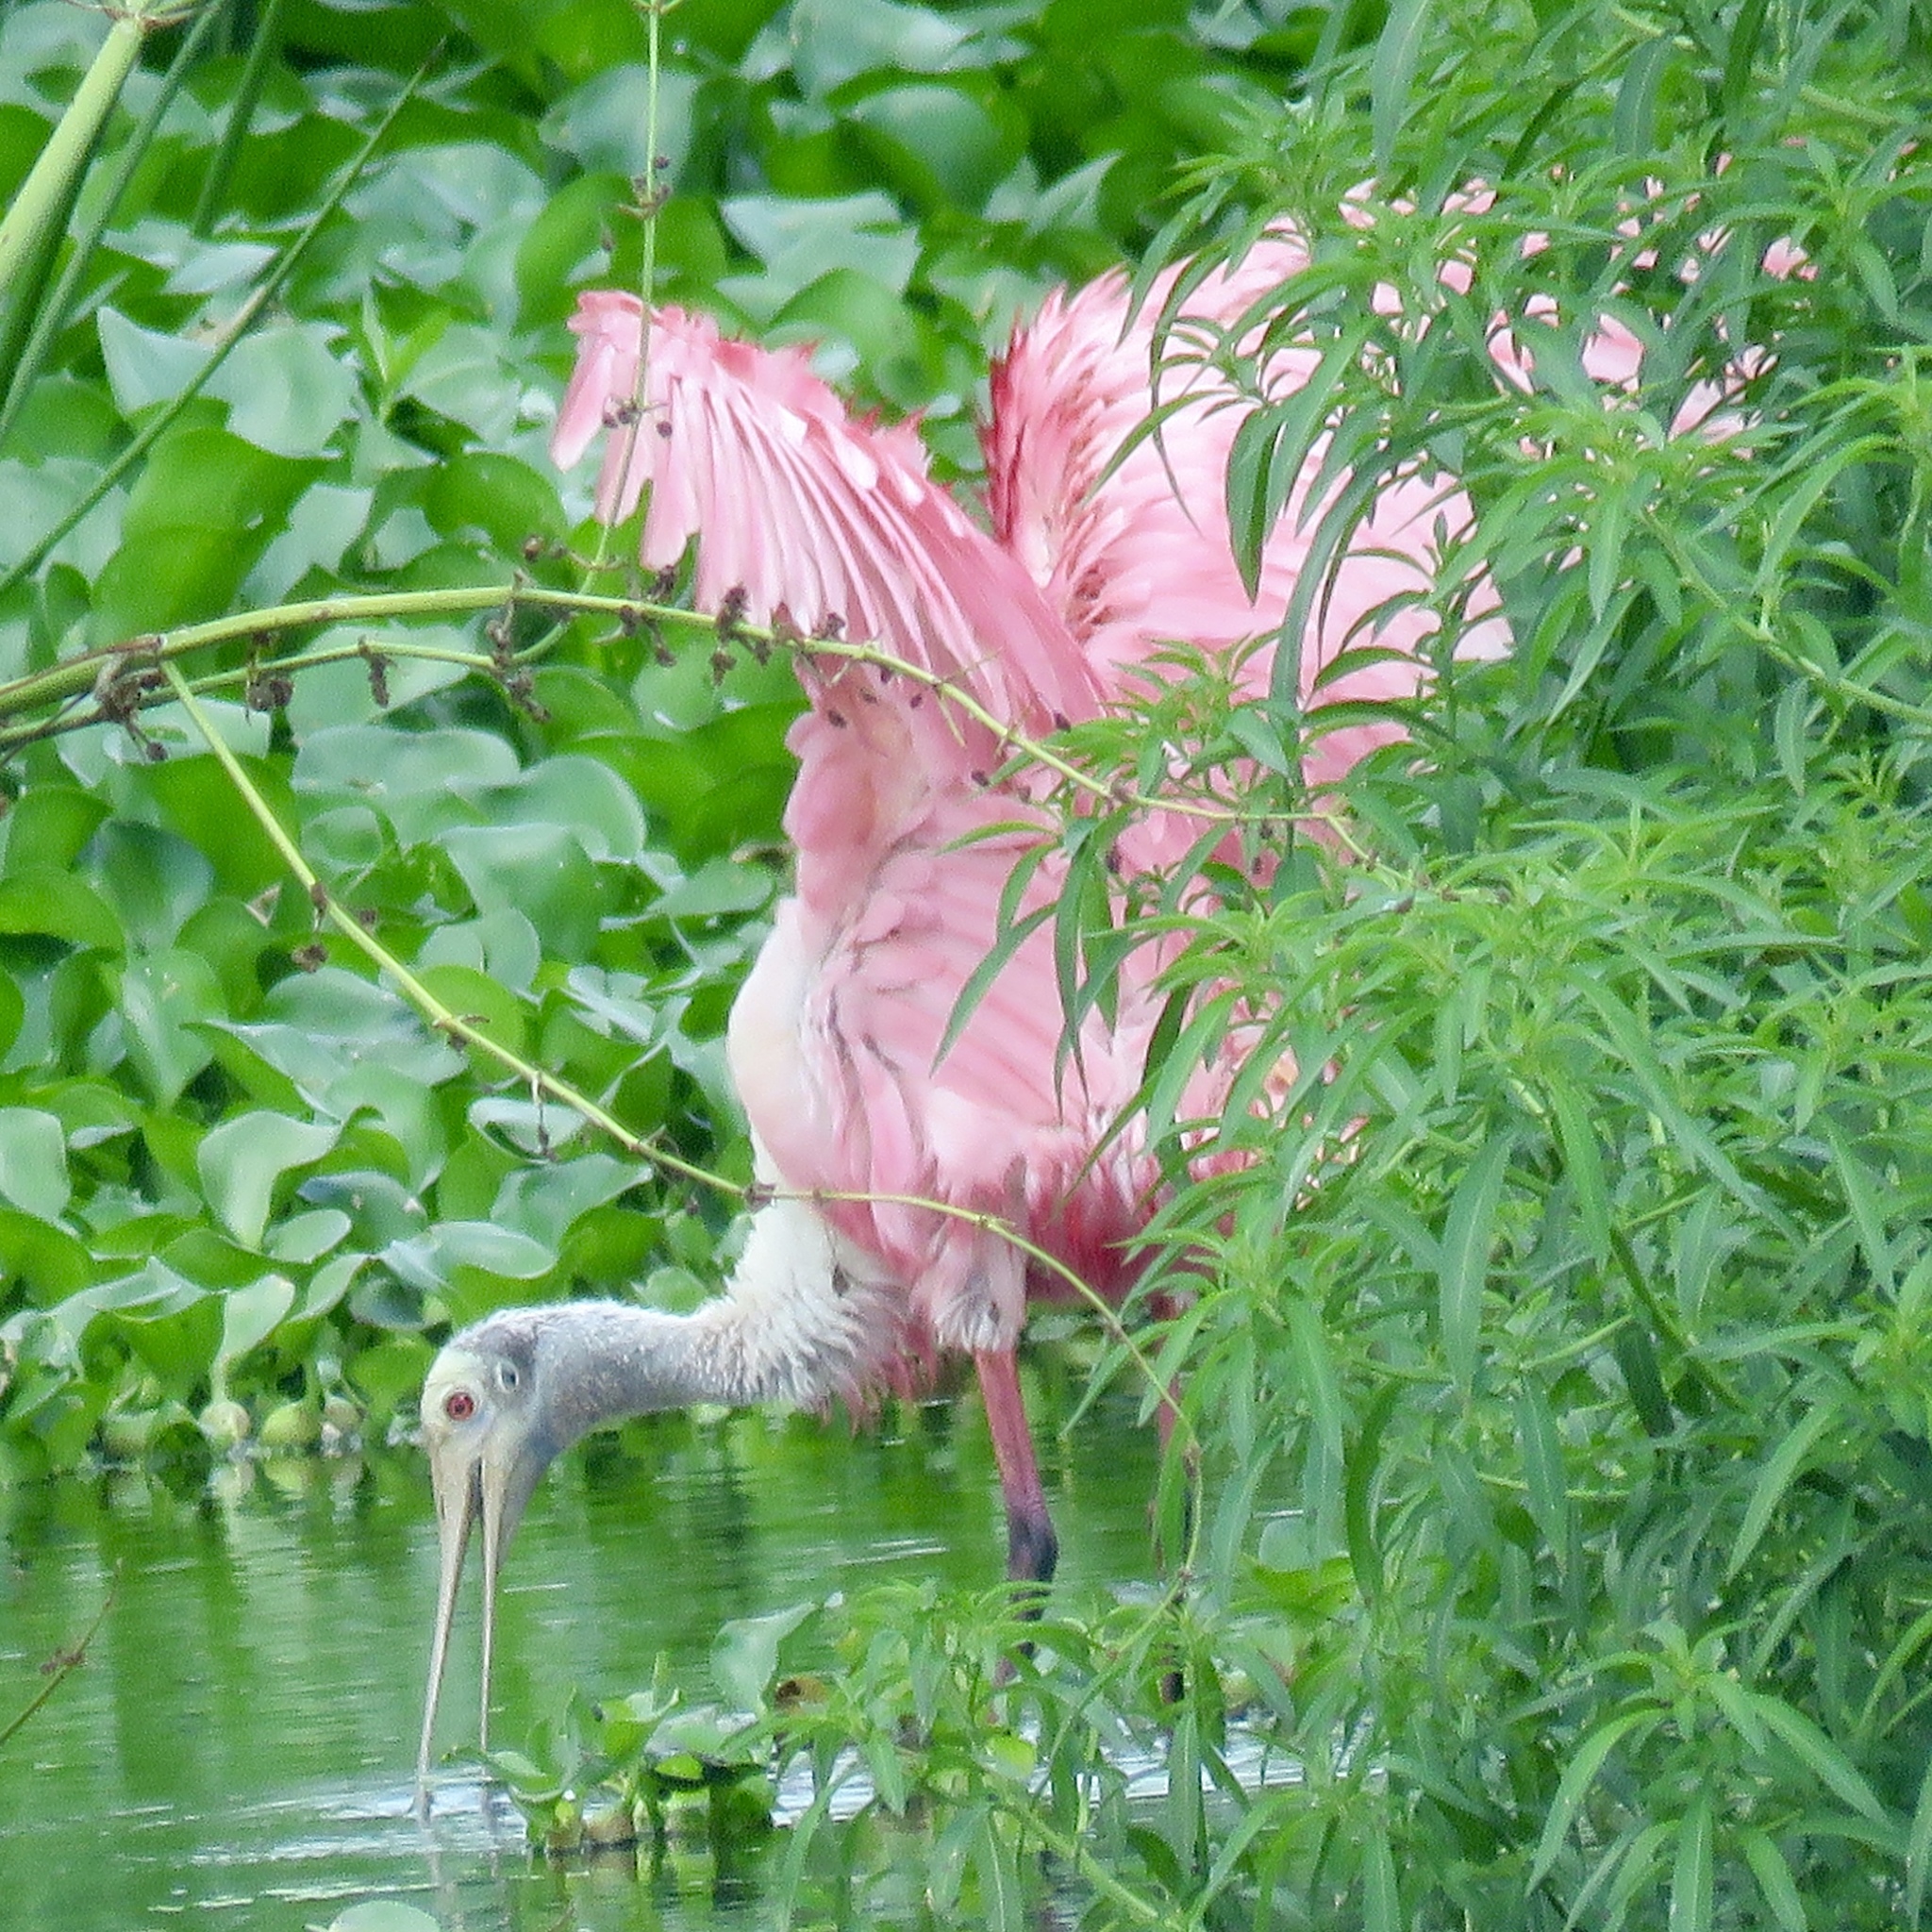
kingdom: Animalia
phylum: Chordata
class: Aves
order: Pelecaniformes
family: Threskiornithidae
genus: Platalea
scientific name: Platalea ajaja
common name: Roseate spoonbill
